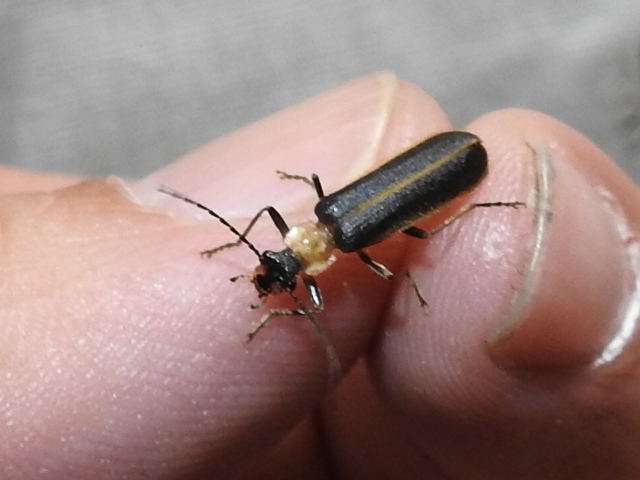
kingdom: Animalia
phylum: Arthropoda
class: Insecta
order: Coleoptera
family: Cantharidae
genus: Podabrus
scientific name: Podabrus flavicollis
